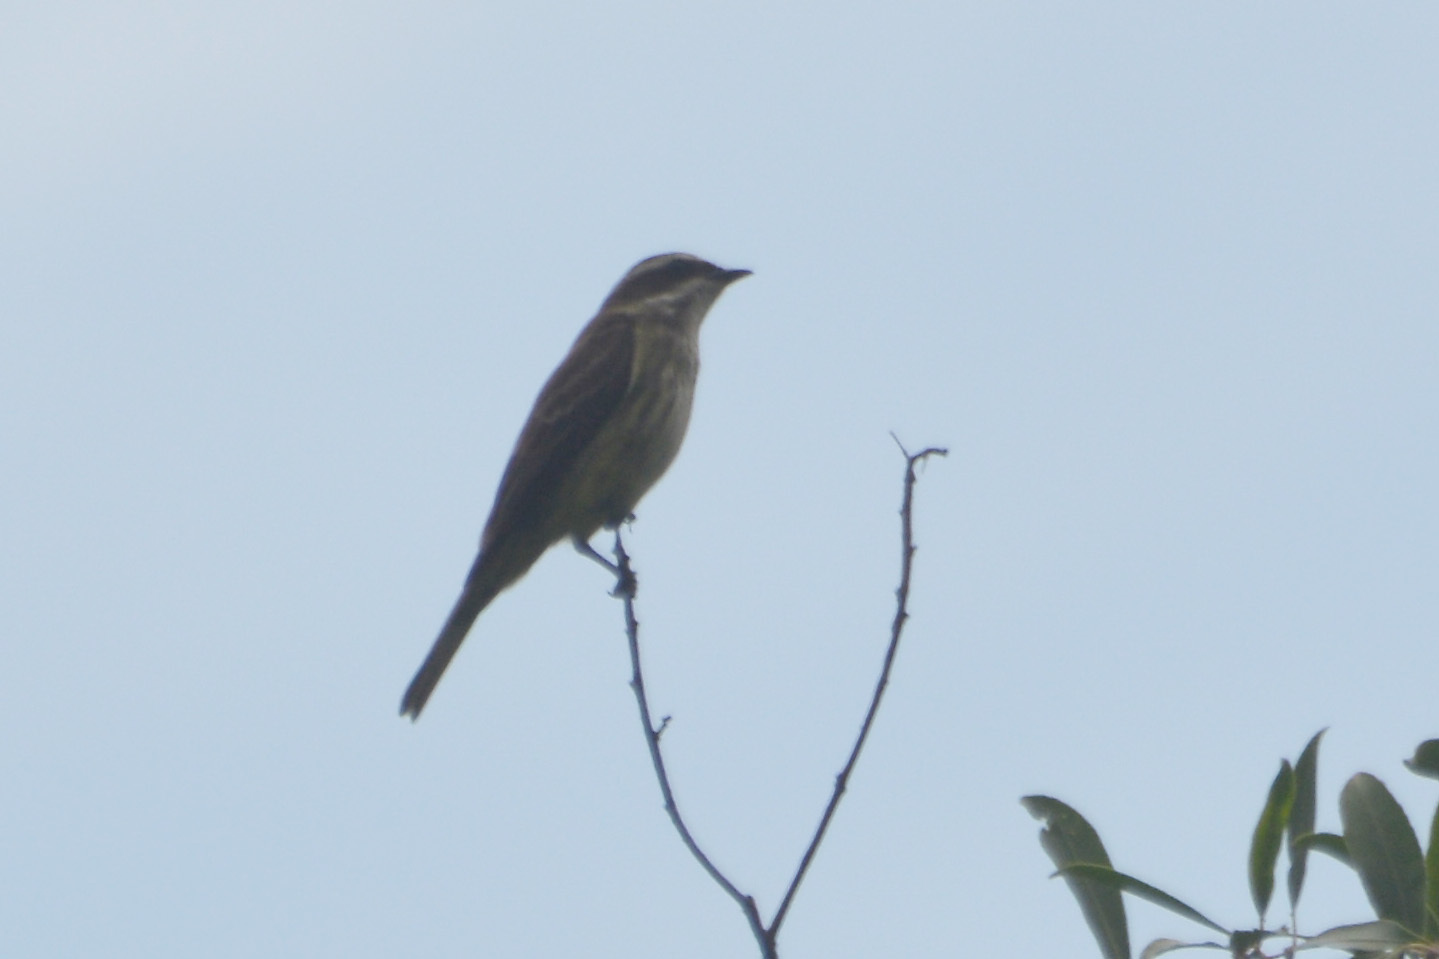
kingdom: Animalia
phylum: Chordata
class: Aves
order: Passeriformes
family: Tyrannidae
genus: Empidonomus
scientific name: Empidonomus varius
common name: Variegated flycatcher
